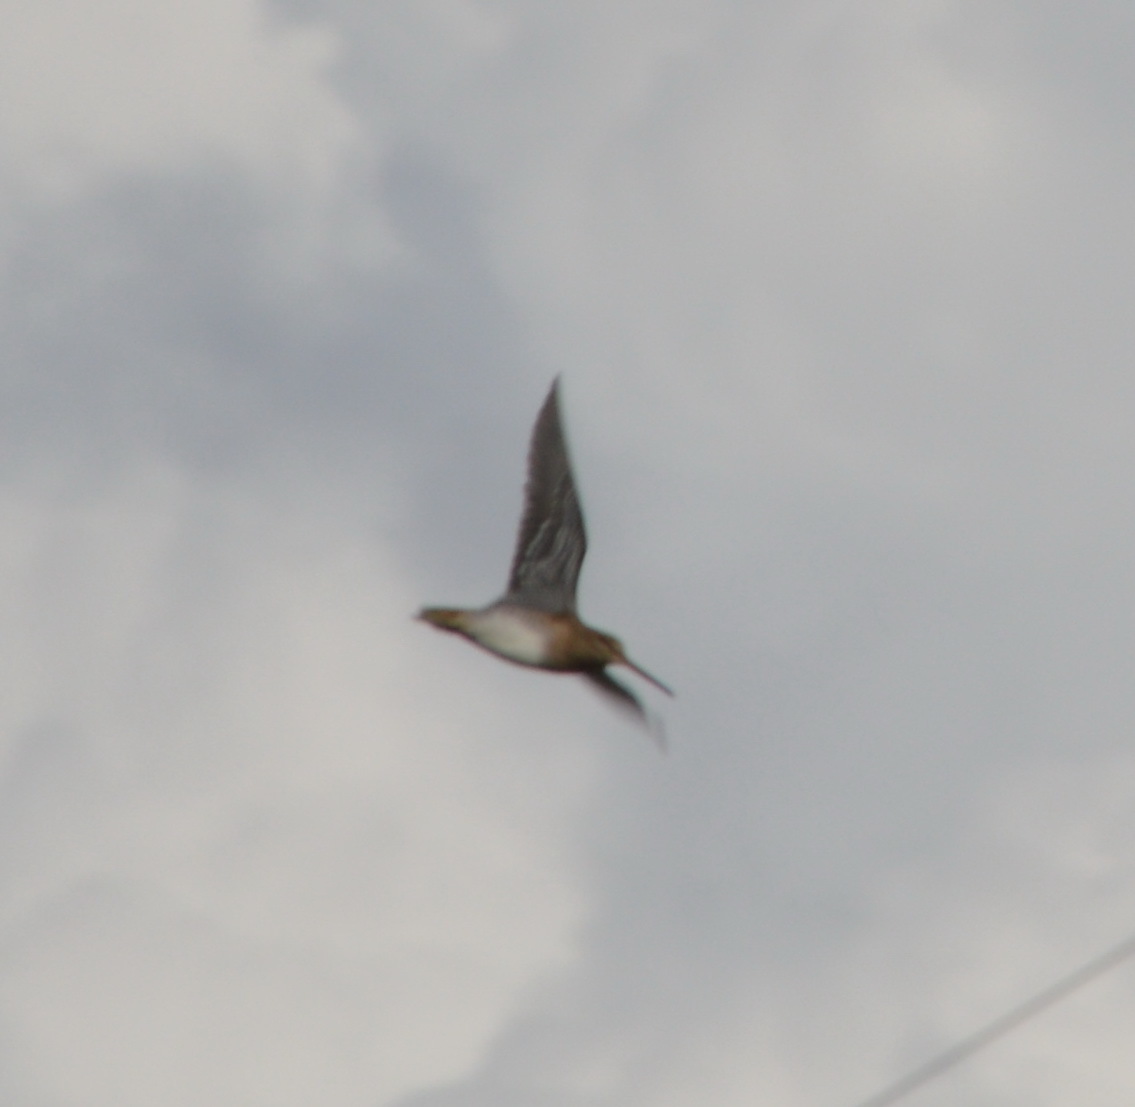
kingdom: Animalia
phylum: Chordata
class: Aves
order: Charadriiformes
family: Scolopacidae
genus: Gallinago
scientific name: Gallinago delicata
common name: Wilson's snipe
